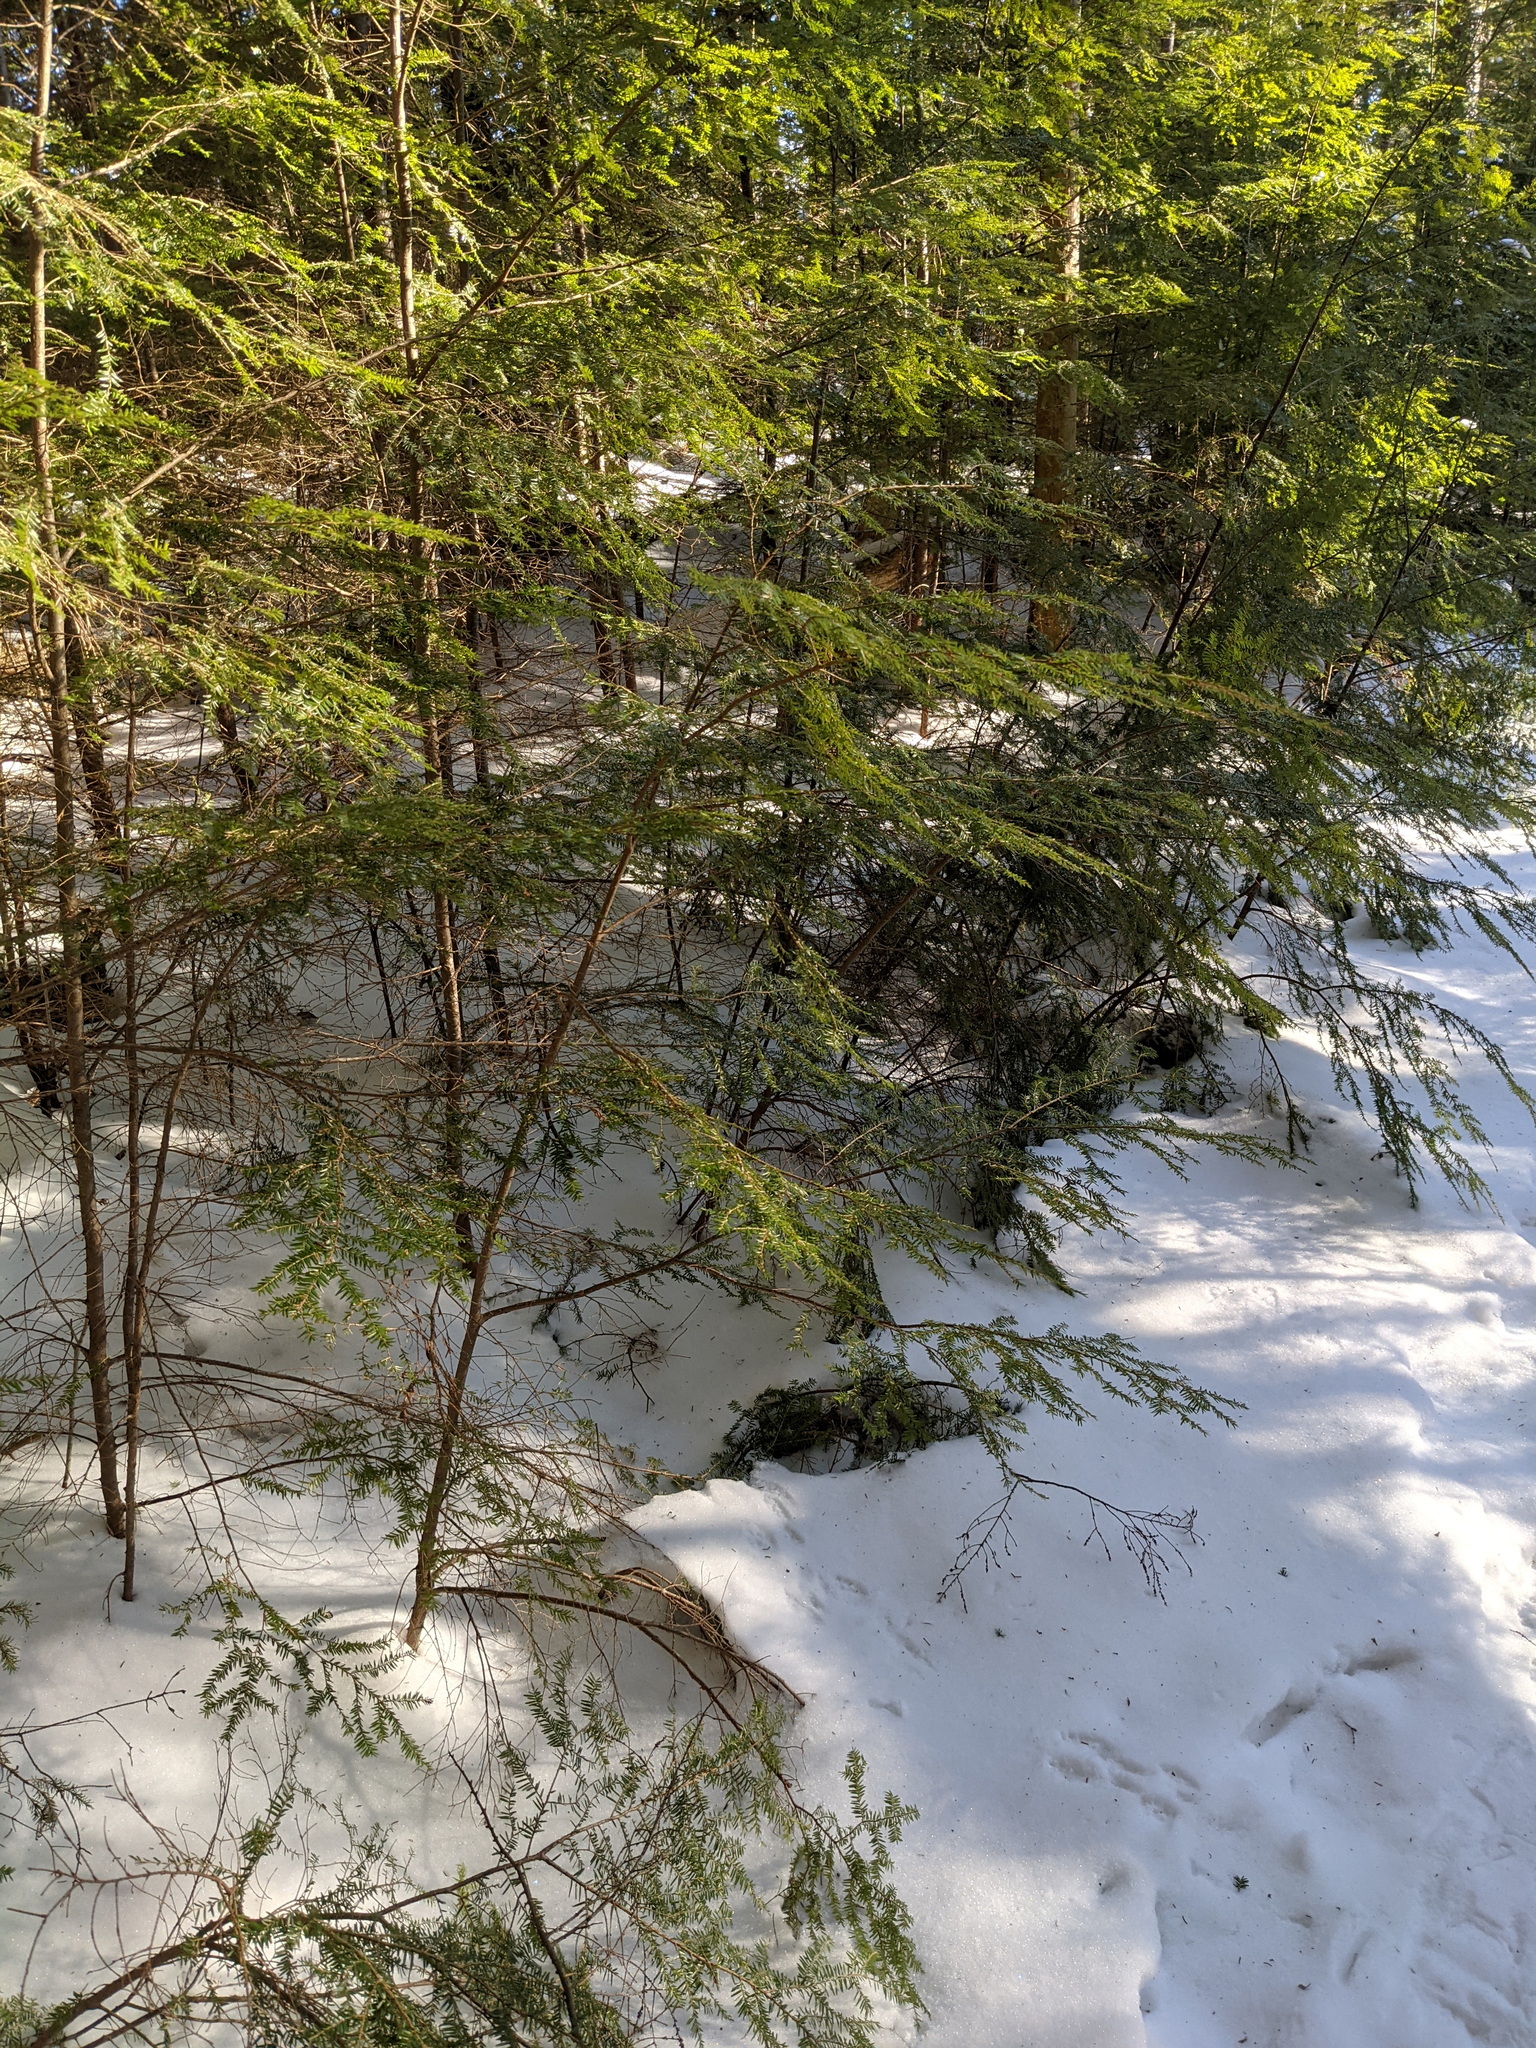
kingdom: Plantae
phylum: Tracheophyta
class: Pinopsida
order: Pinales
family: Pinaceae
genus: Tsuga
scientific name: Tsuga canadensis
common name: Eastern hemlock
